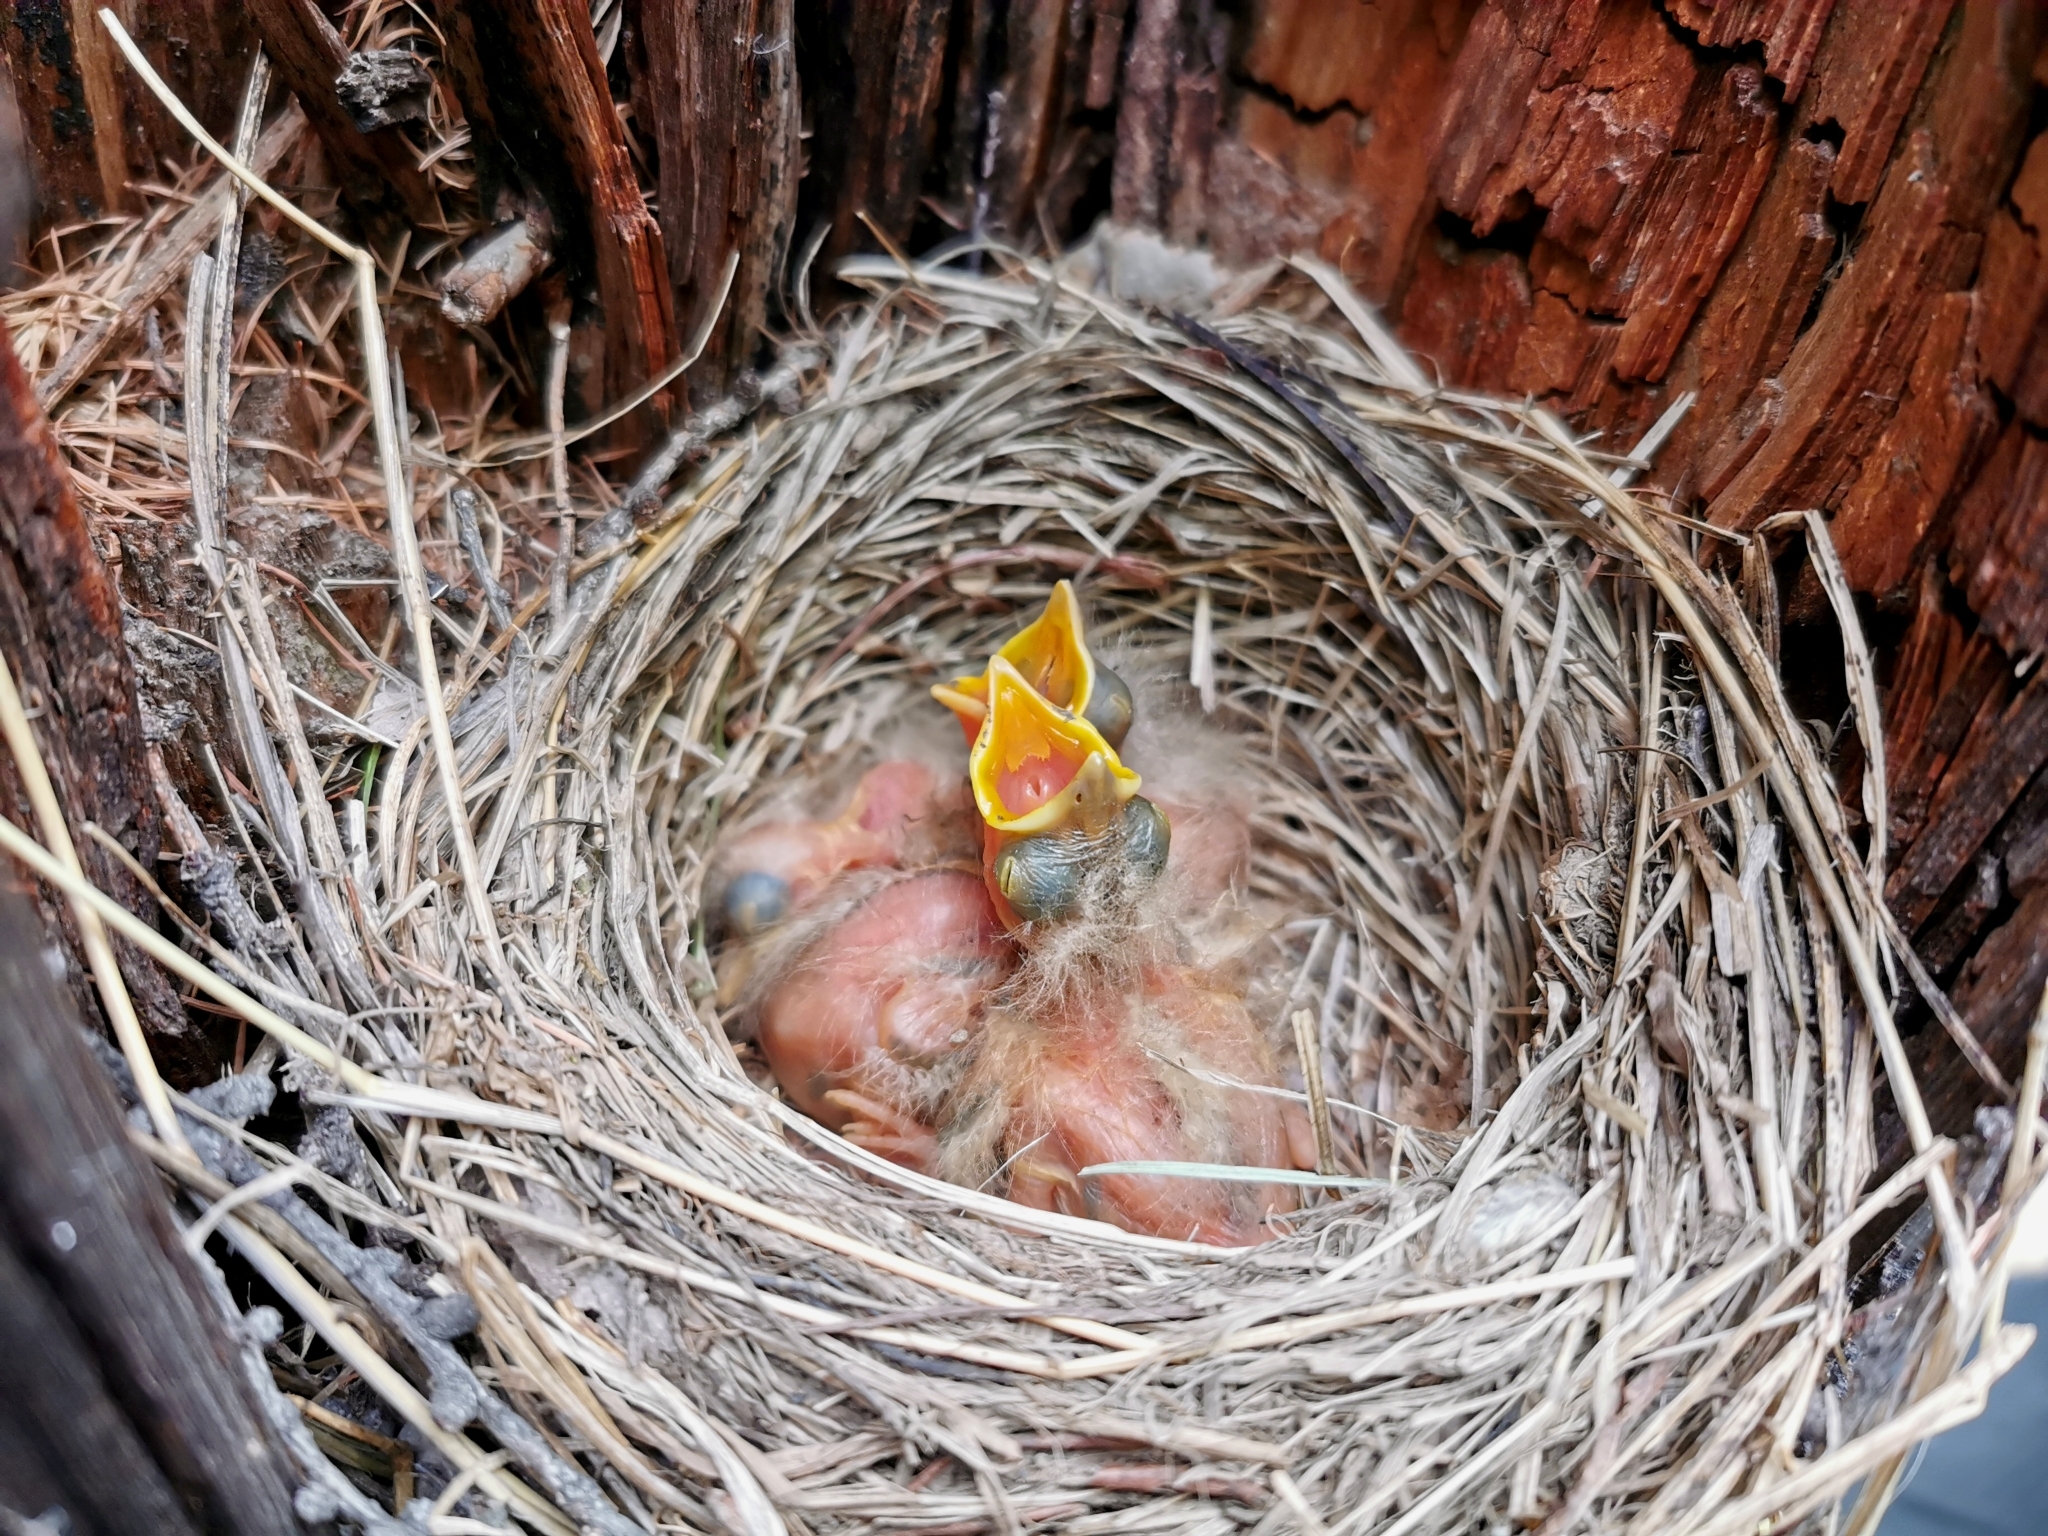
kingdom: Animalia
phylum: Chordata
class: Aves
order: Passeriformes
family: Turdidae
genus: Turdus
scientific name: Turdus obscurus
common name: Eyebrowed thrush
